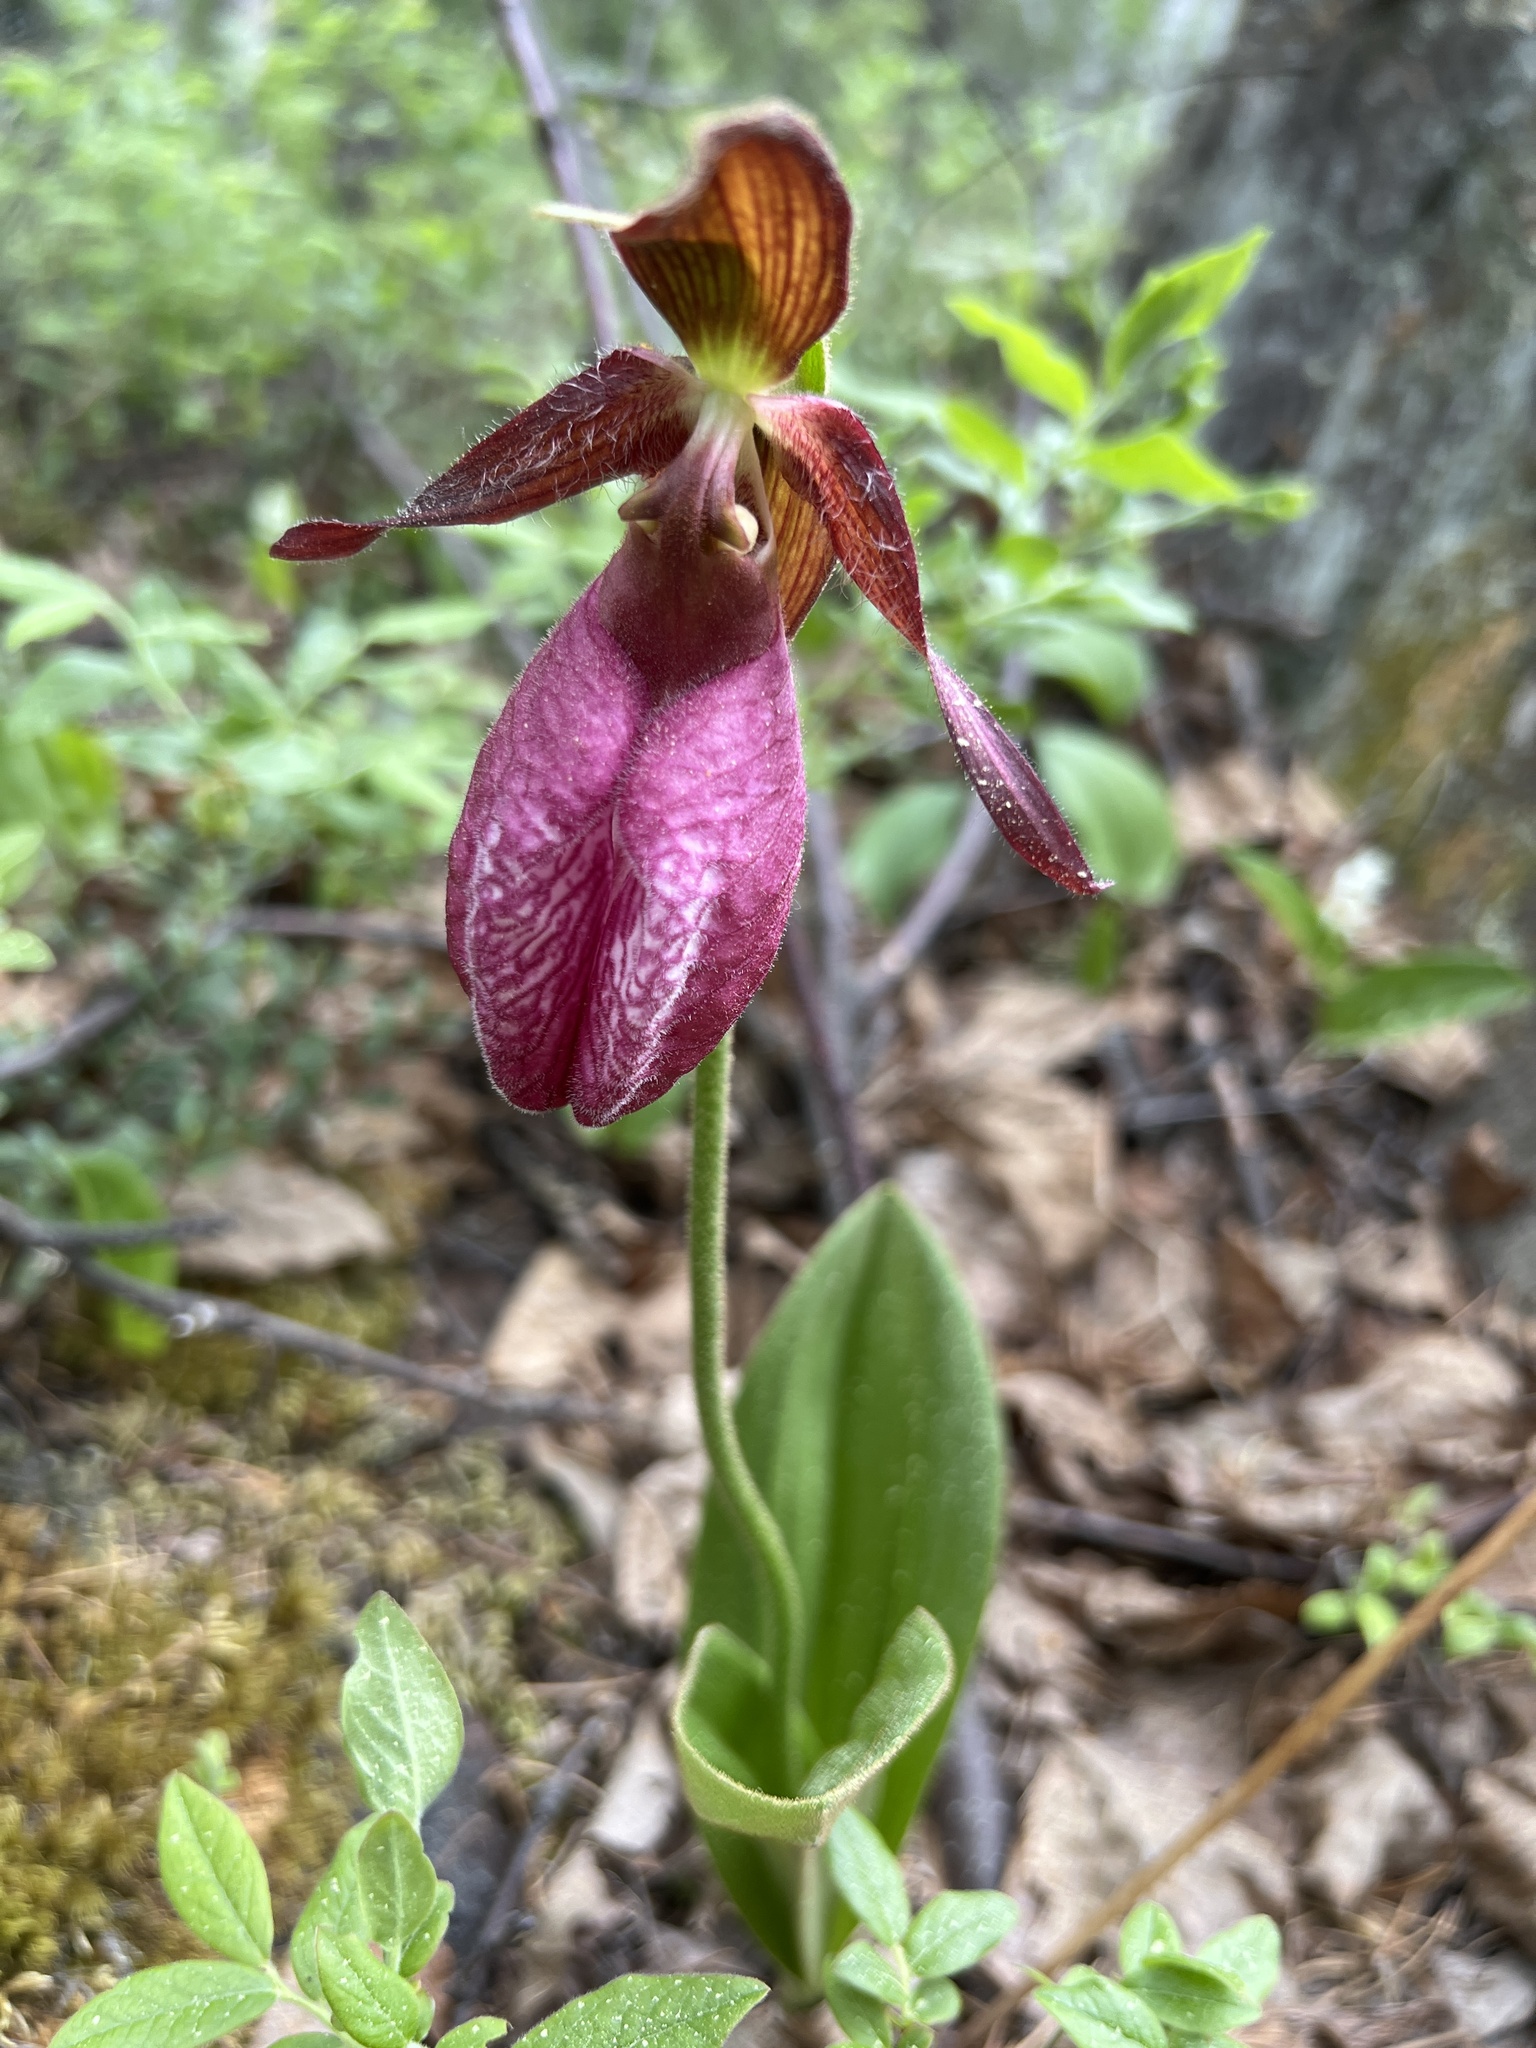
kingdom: Plantae
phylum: Tracheophyta
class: Liliopsida
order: Asparagales
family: Orchidaceae
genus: Cypripedium
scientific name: Cypripedium acaule
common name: Pink lady's-slipper
